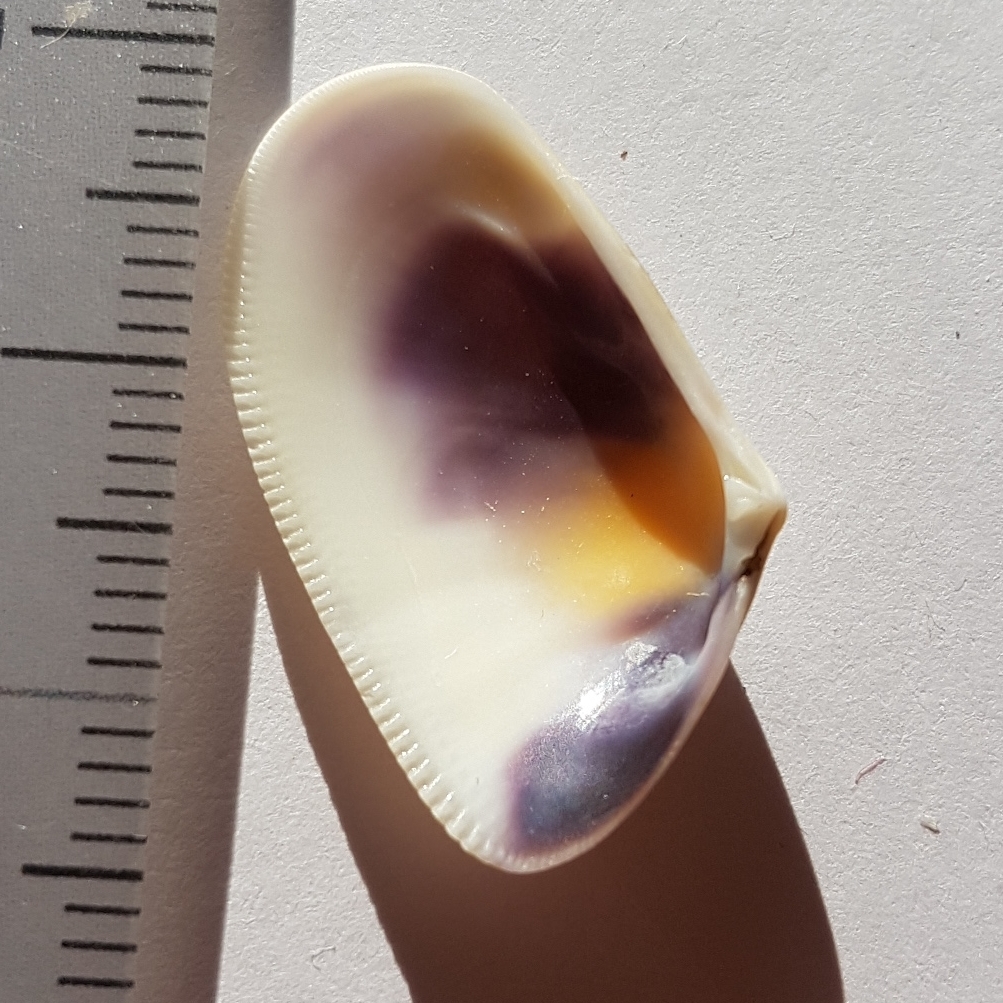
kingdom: Animalia
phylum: Mollusca
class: Bivalvia
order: Cardiida
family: Donacidae
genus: Donax
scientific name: Donax trunculus
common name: Truncate donax
